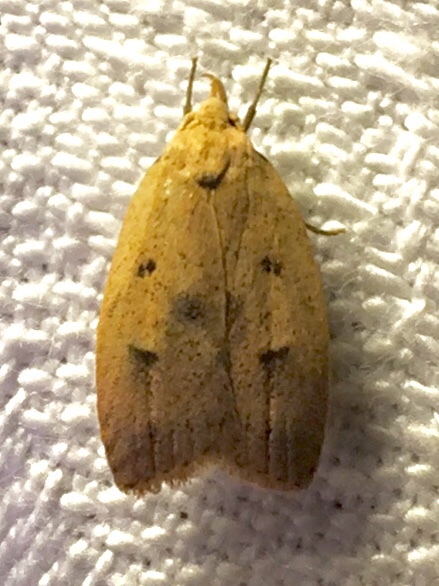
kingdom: Animalia
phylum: Arthropoda
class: Insecta
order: Lepidoptera
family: Peleopodidae
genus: Machimia
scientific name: Machimia tentoriferella
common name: Gold-striped leaftier moth
